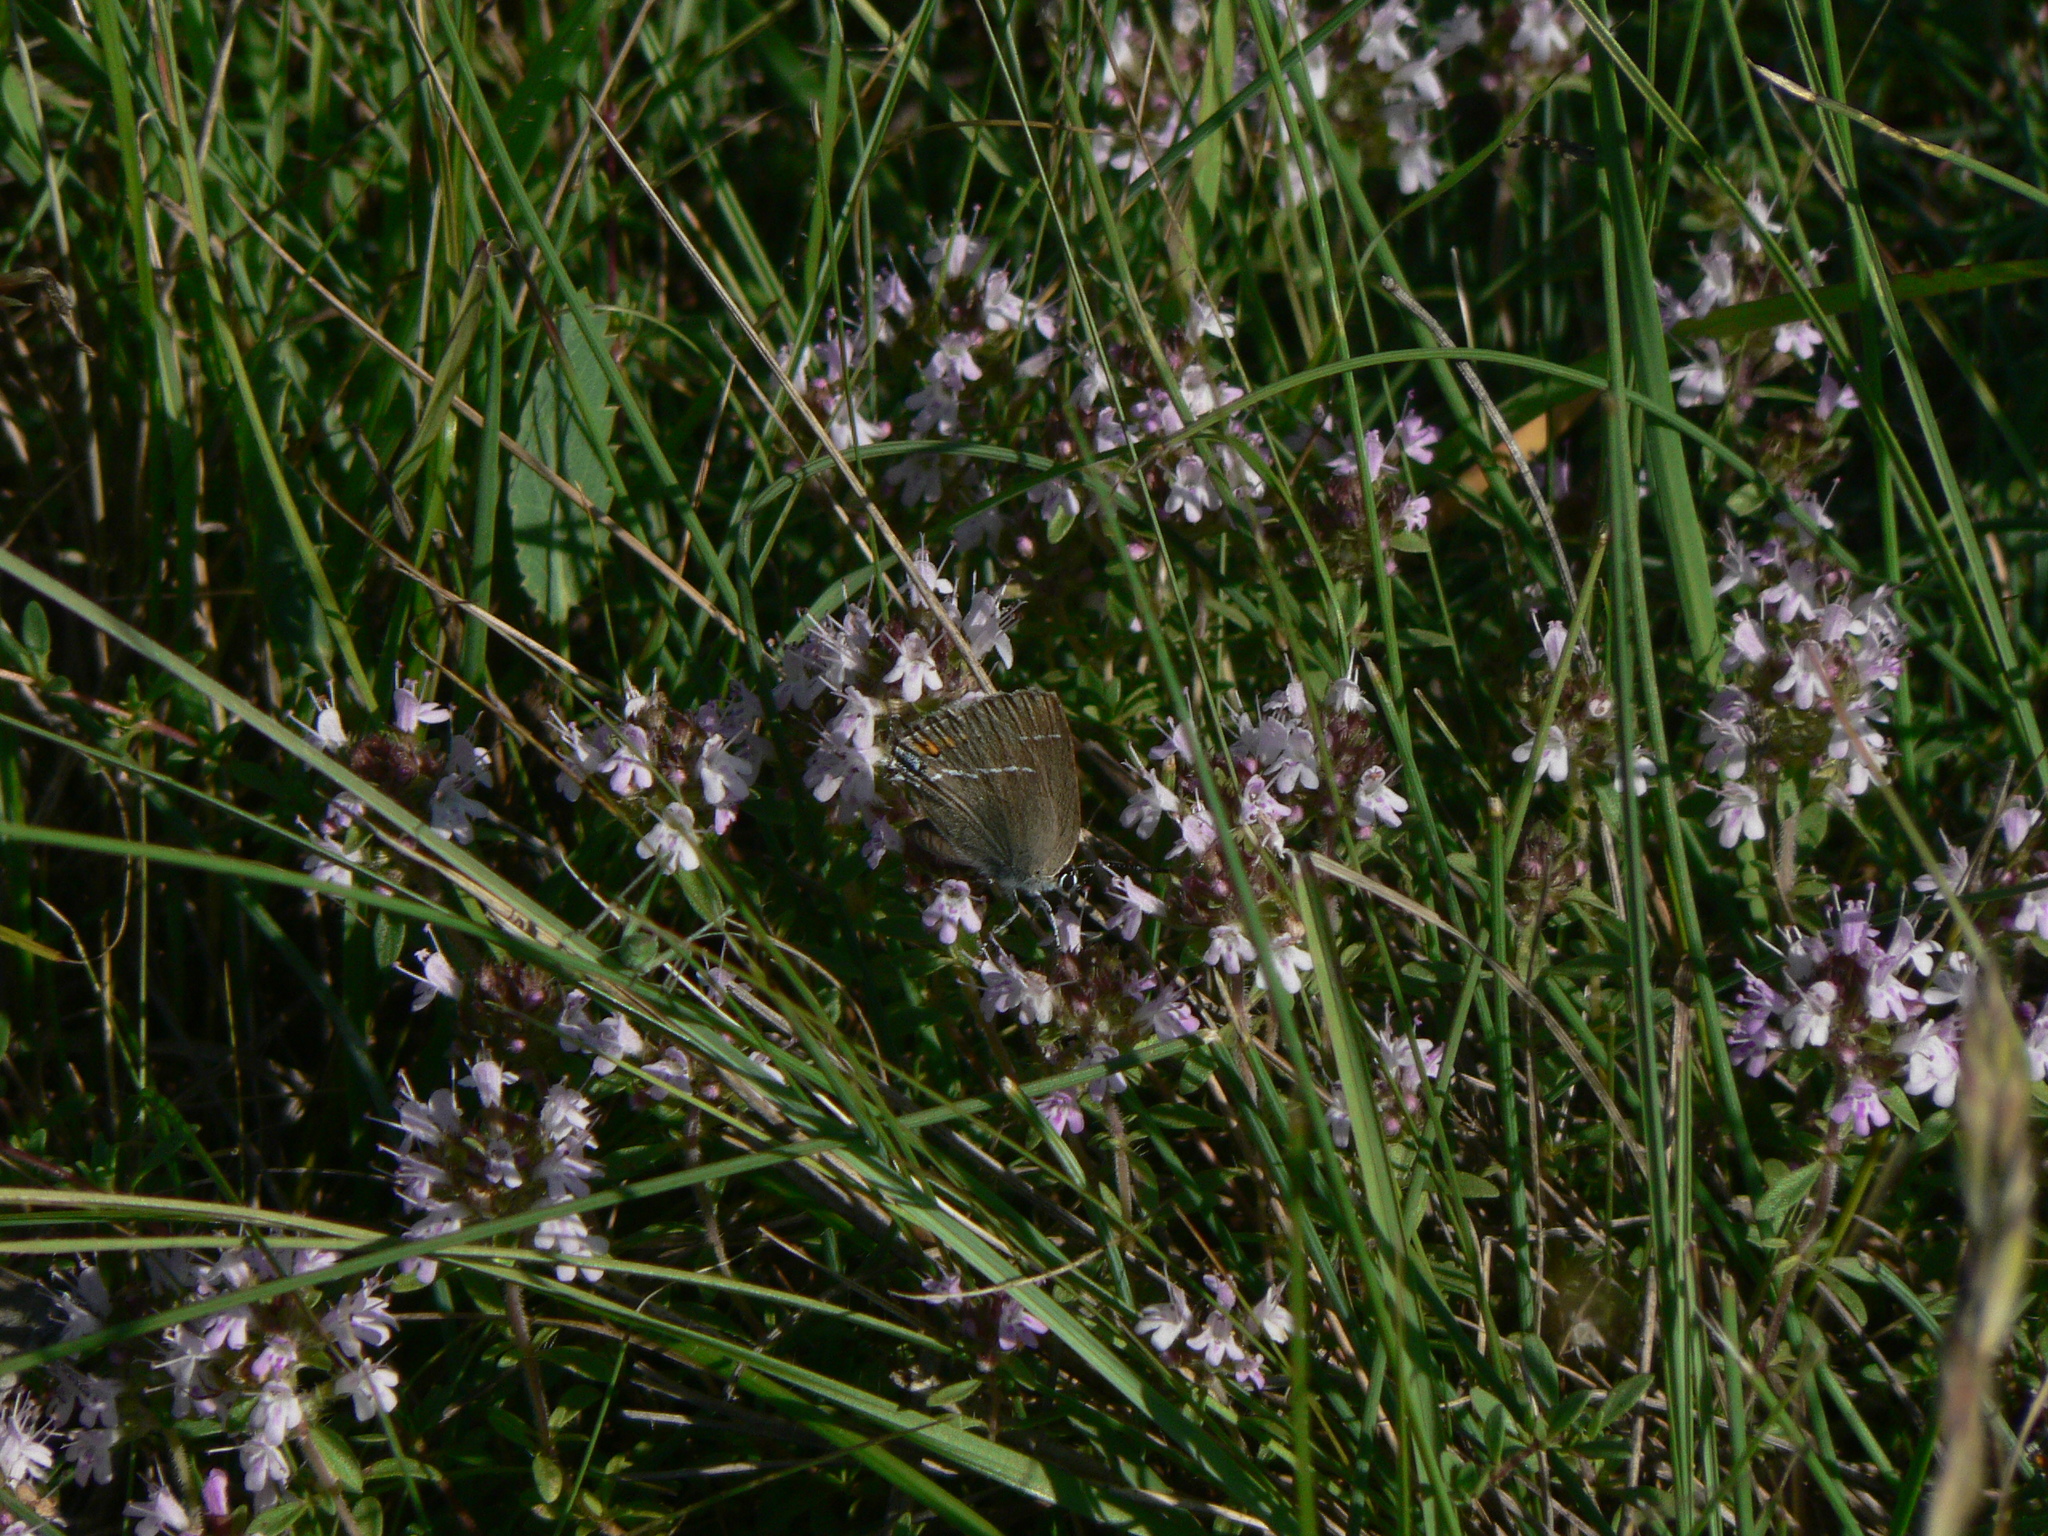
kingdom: Animalia
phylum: Arthropoda
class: Insecta
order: Lepidoptera
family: Lycaenidae
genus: Tuttiola
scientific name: Tuttiola spini
